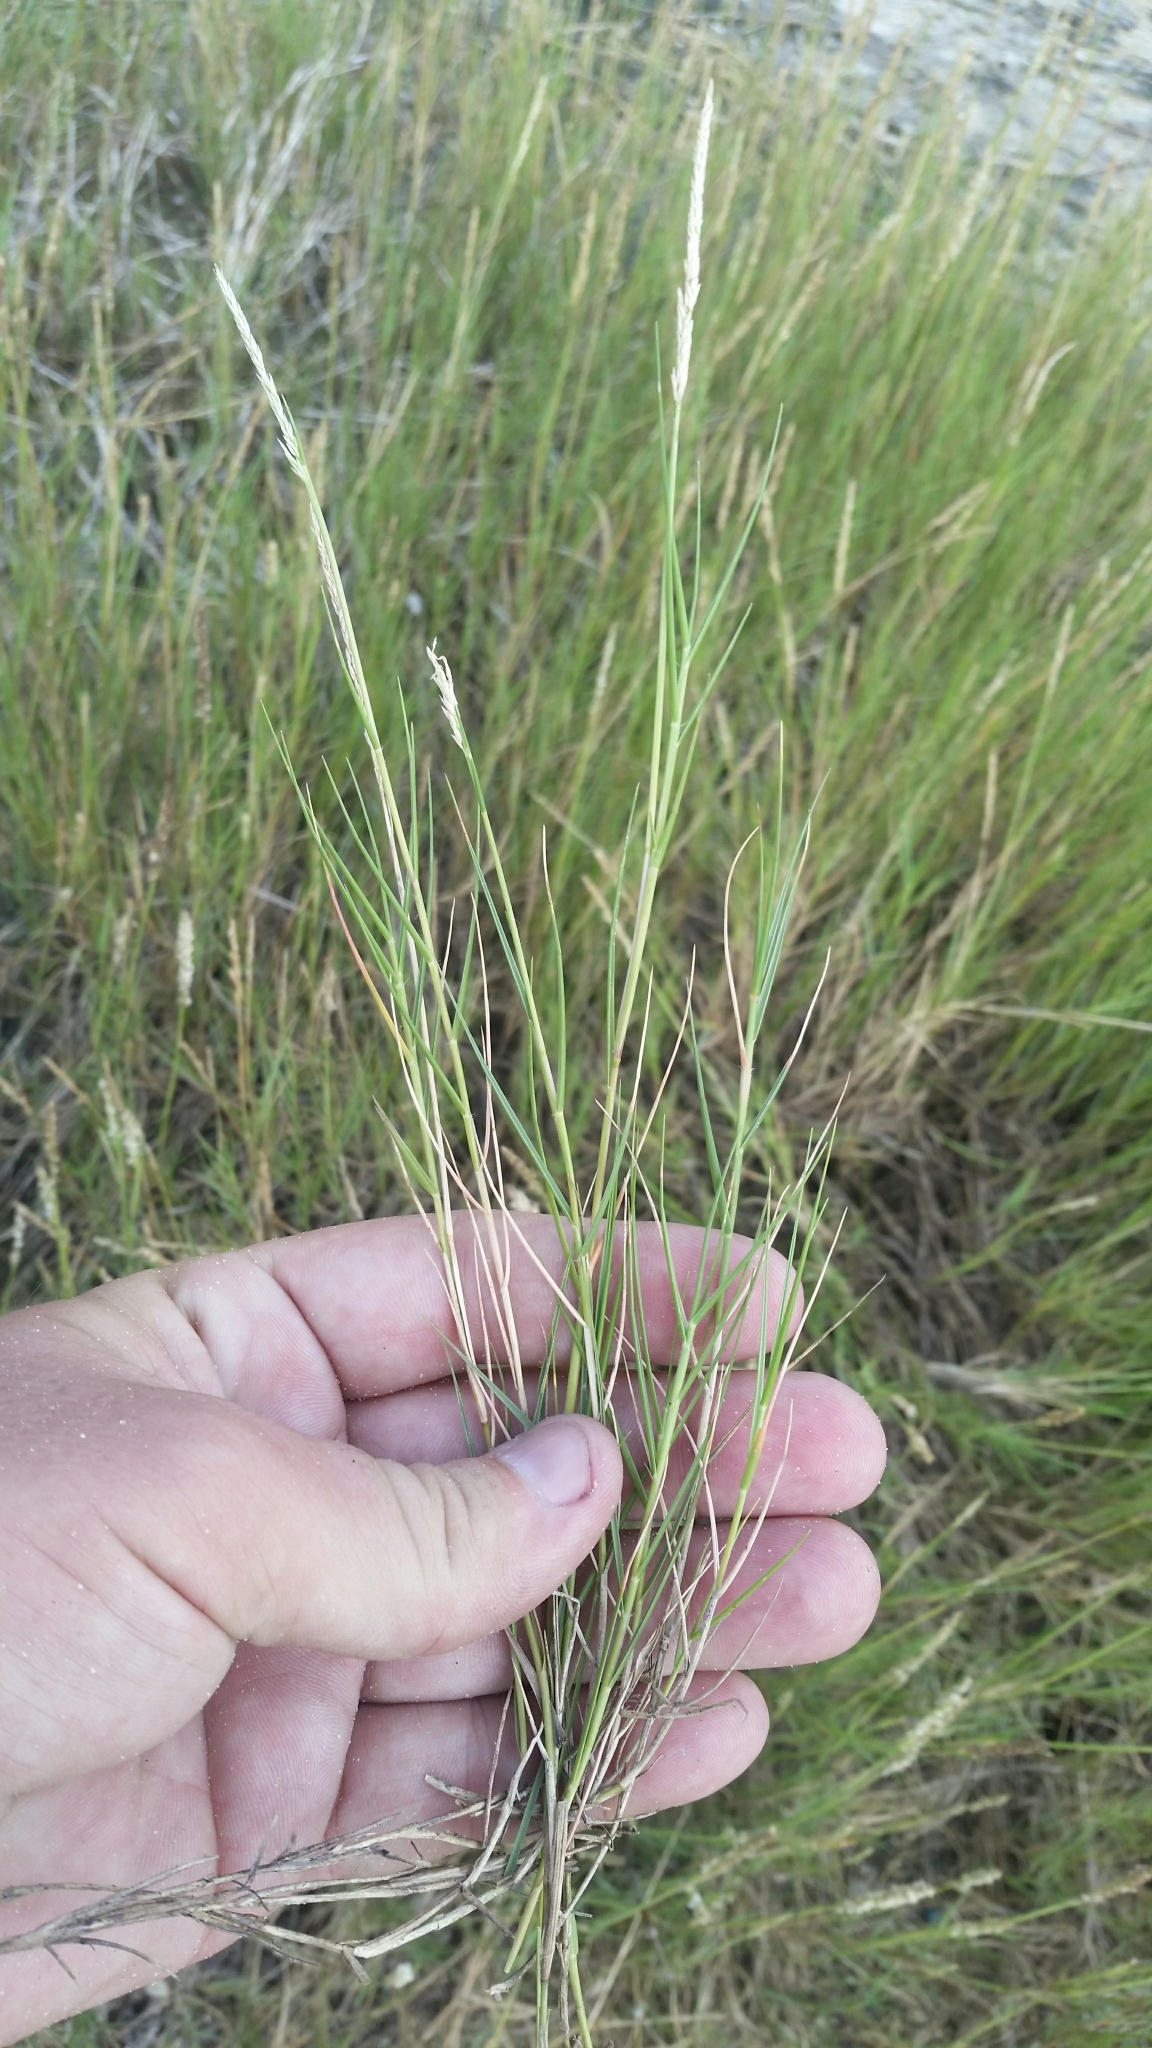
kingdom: Plantae
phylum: Tracheophyta
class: Liliopsida
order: Poales
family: Poaceae
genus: Sporobolus
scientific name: Sporobolus virginicus
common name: Beach dropseed
